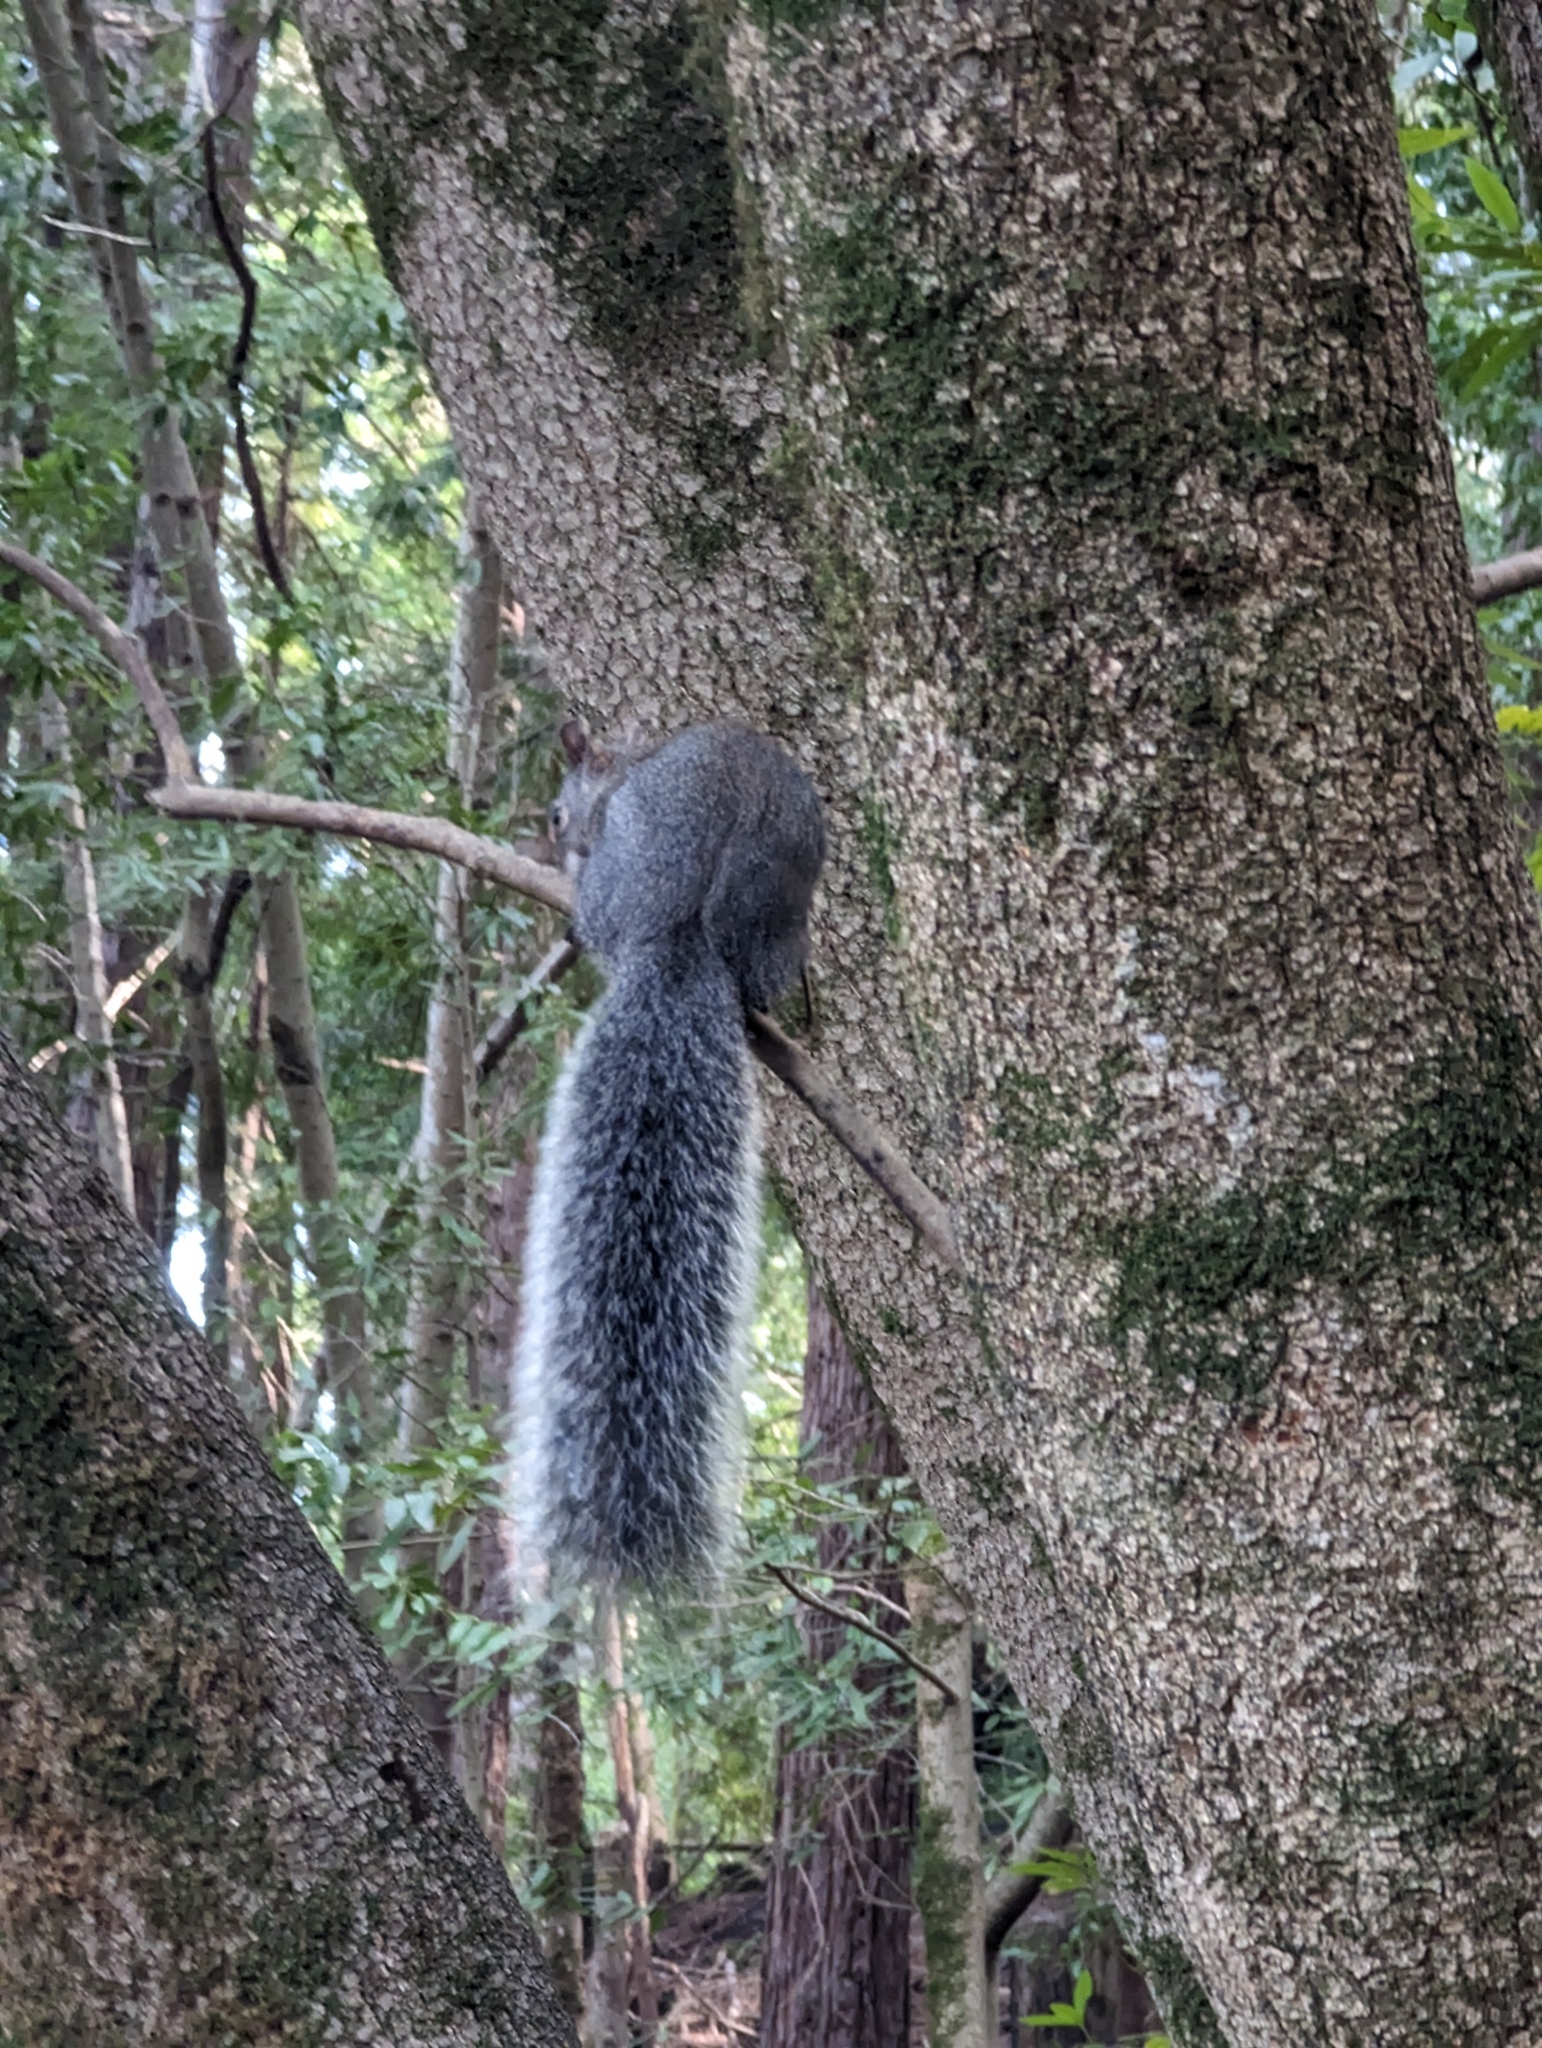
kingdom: Animalia
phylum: Chordata
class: Mammalia
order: Rodentia
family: Sciuridae
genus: Sciurus
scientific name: Sciurus griseus
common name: Western gray squirrel
